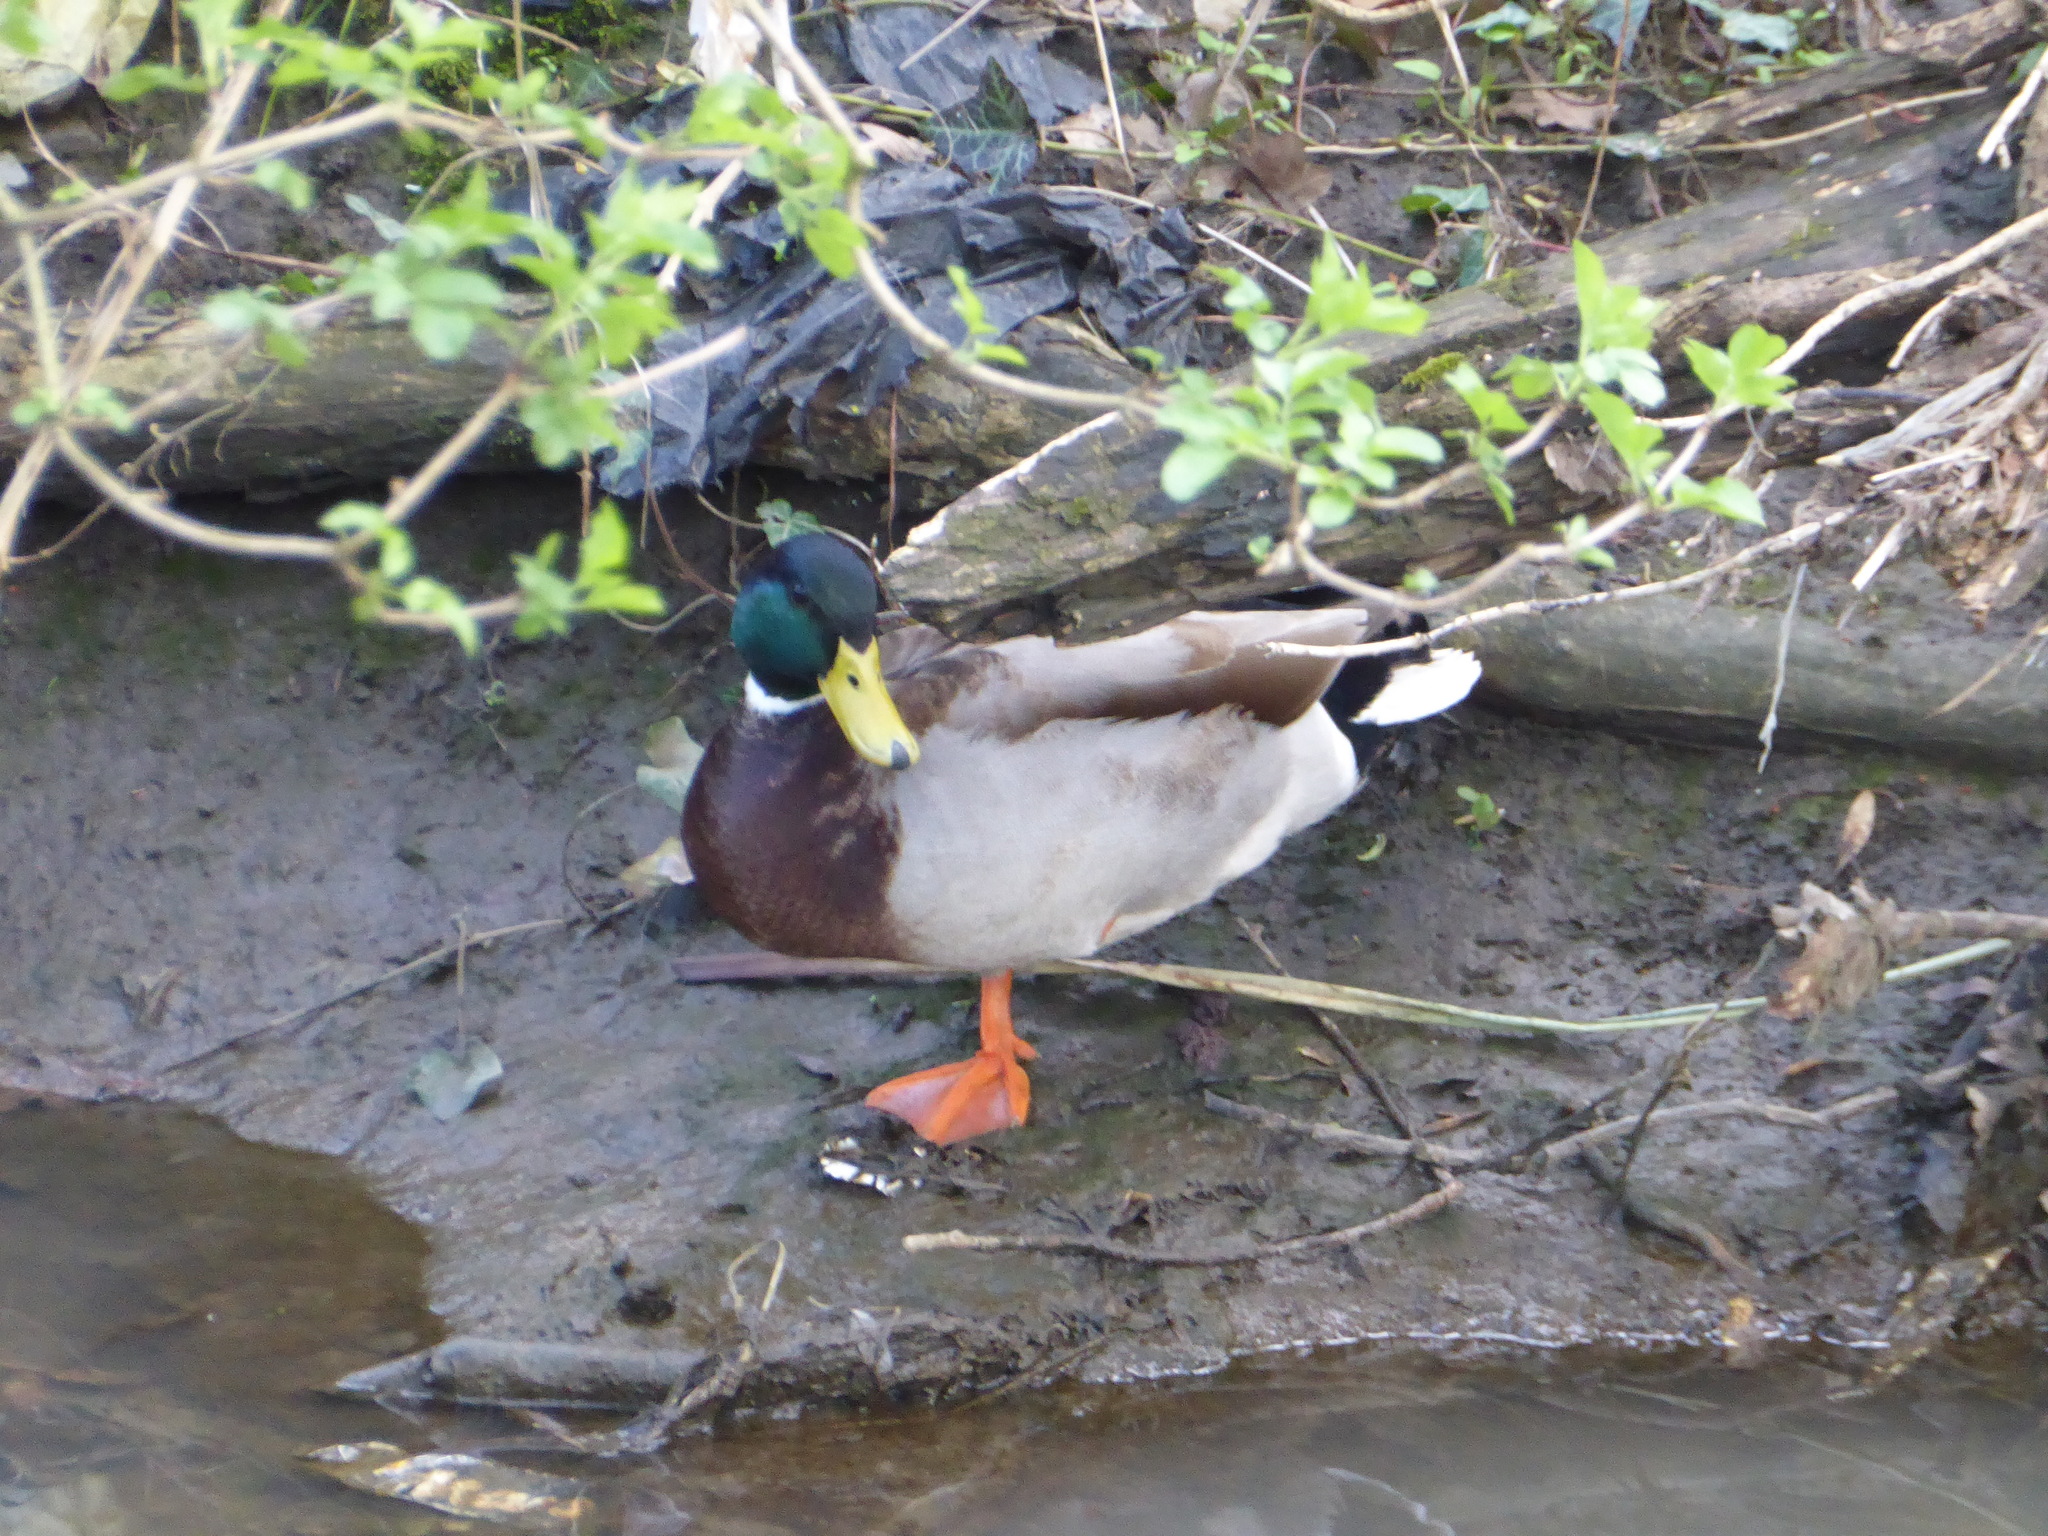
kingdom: Animalia
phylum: Chordata
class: Aves
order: Anseriformes
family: Anatidae
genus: Anas
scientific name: Anas platyrhynchos
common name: Mallard
